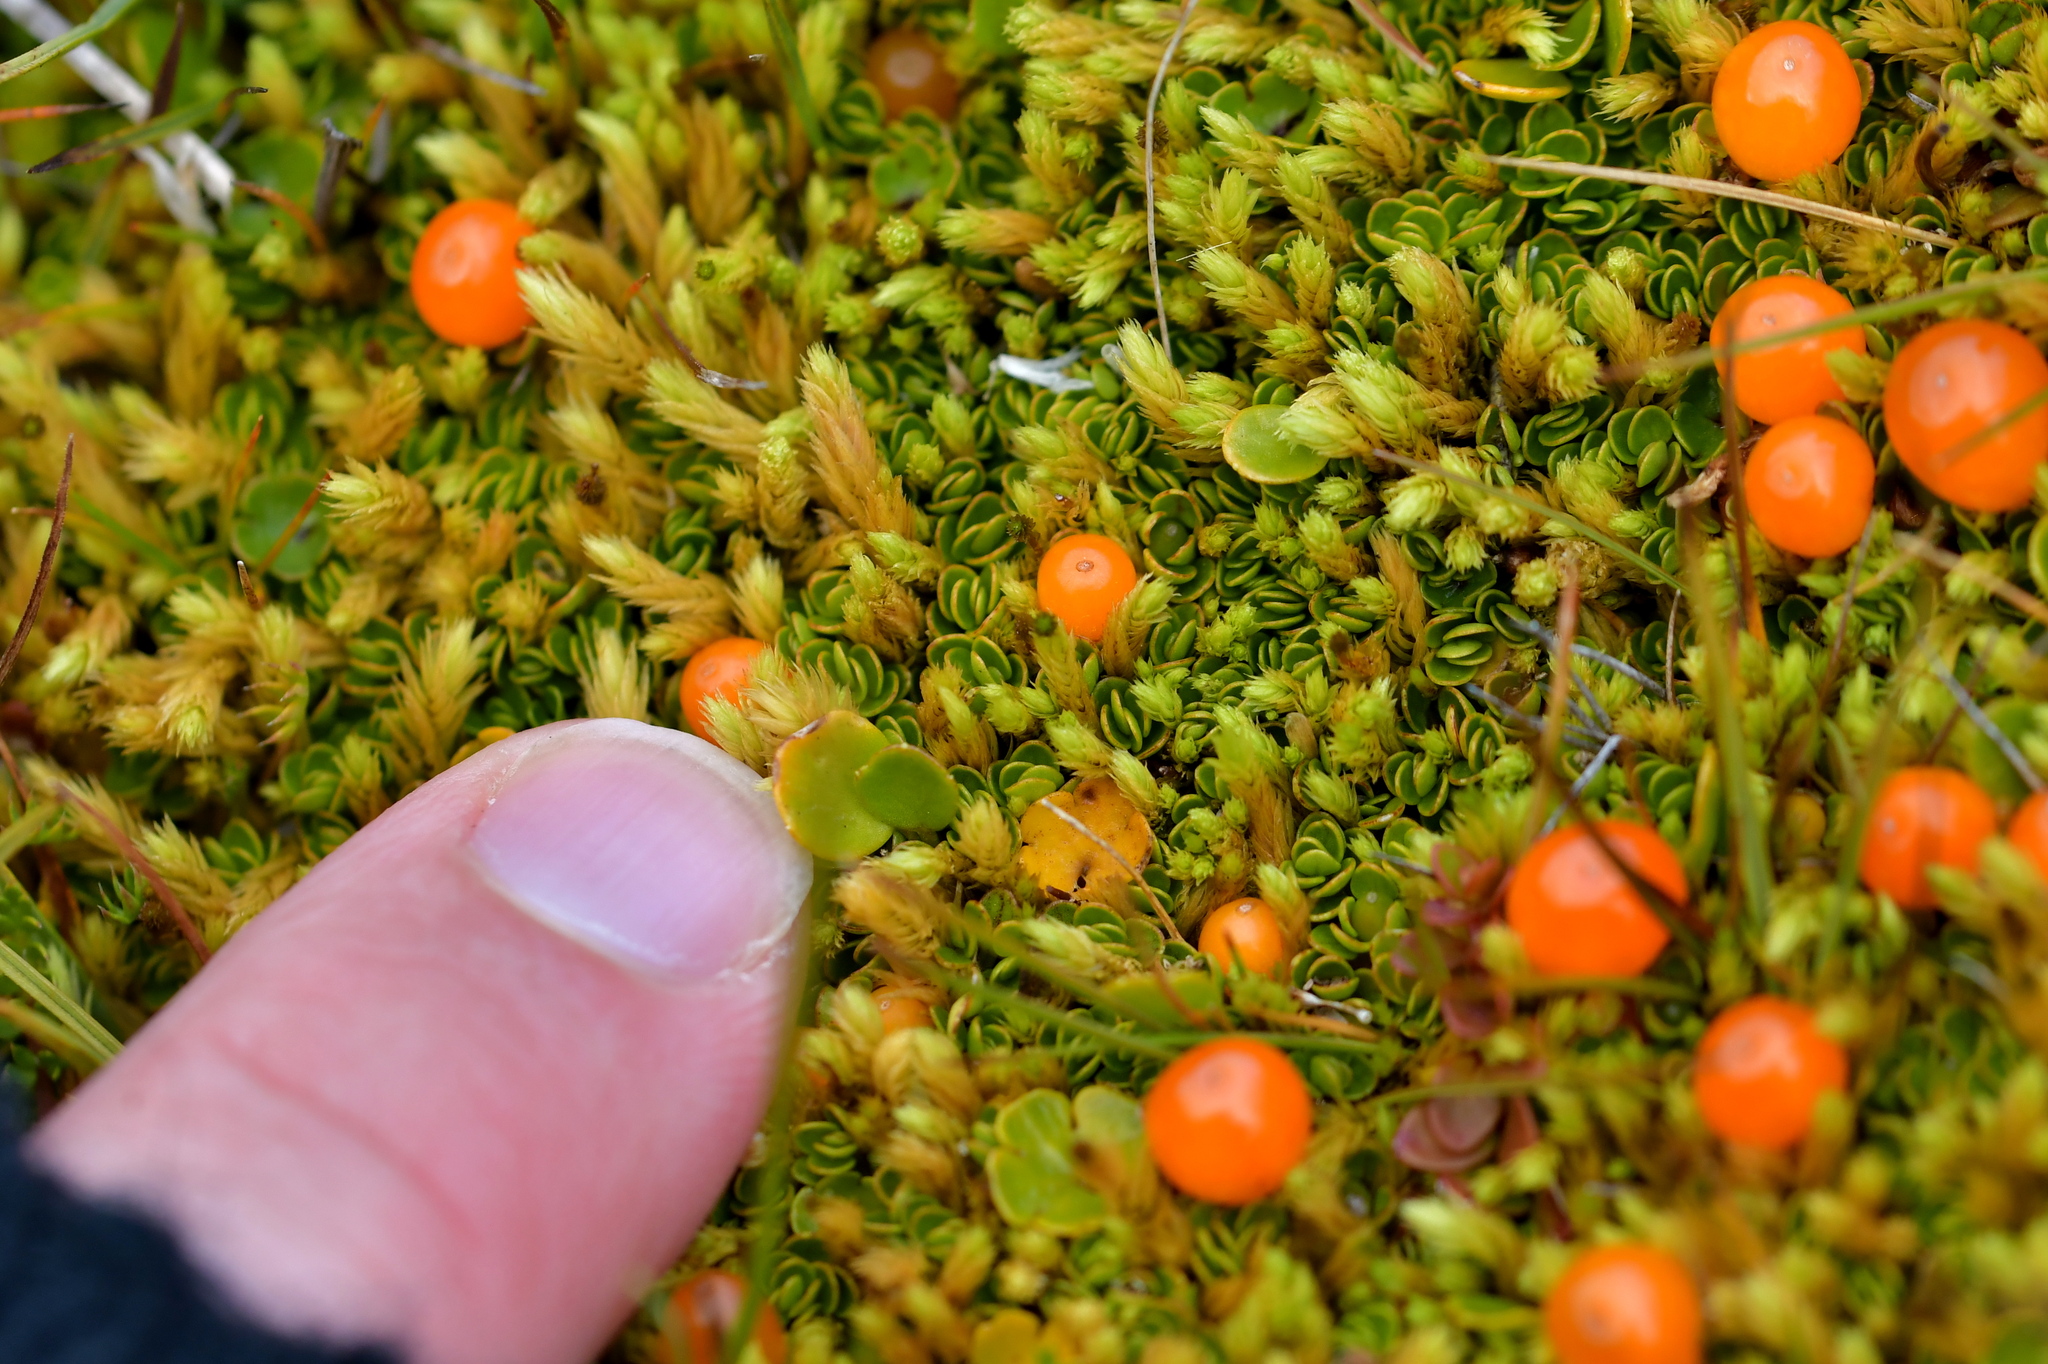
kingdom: Plantae
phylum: Tracheophyta
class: Magnoliopsida
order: Gentianales
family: Rubiaceae
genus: Nertera
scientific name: Nertera balfouriana
